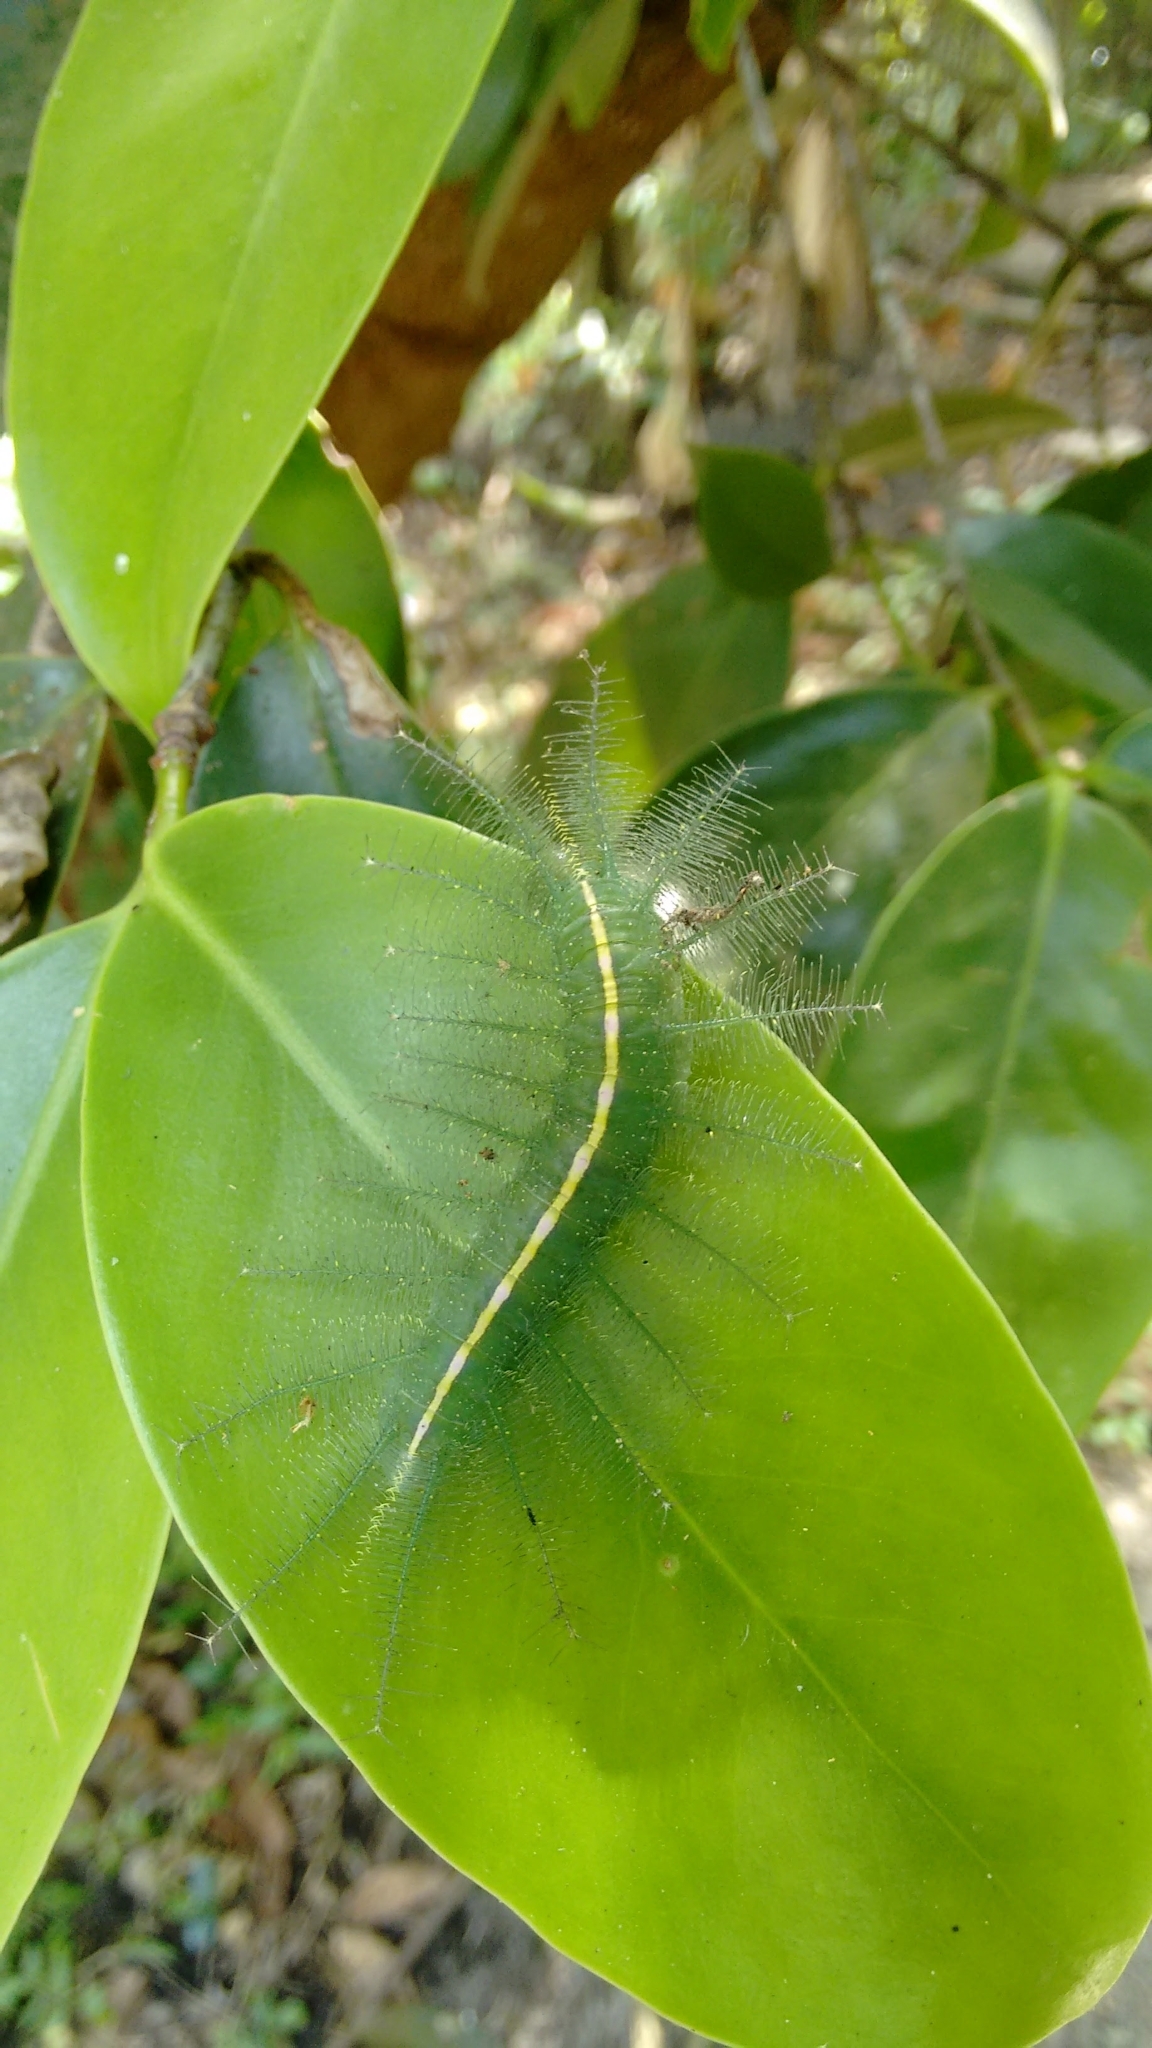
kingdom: Animalia
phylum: Arthropoda
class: Insecta
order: Lepidoptera
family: Nymphalidae
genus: Euthalia
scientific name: Euthalia aconthea
